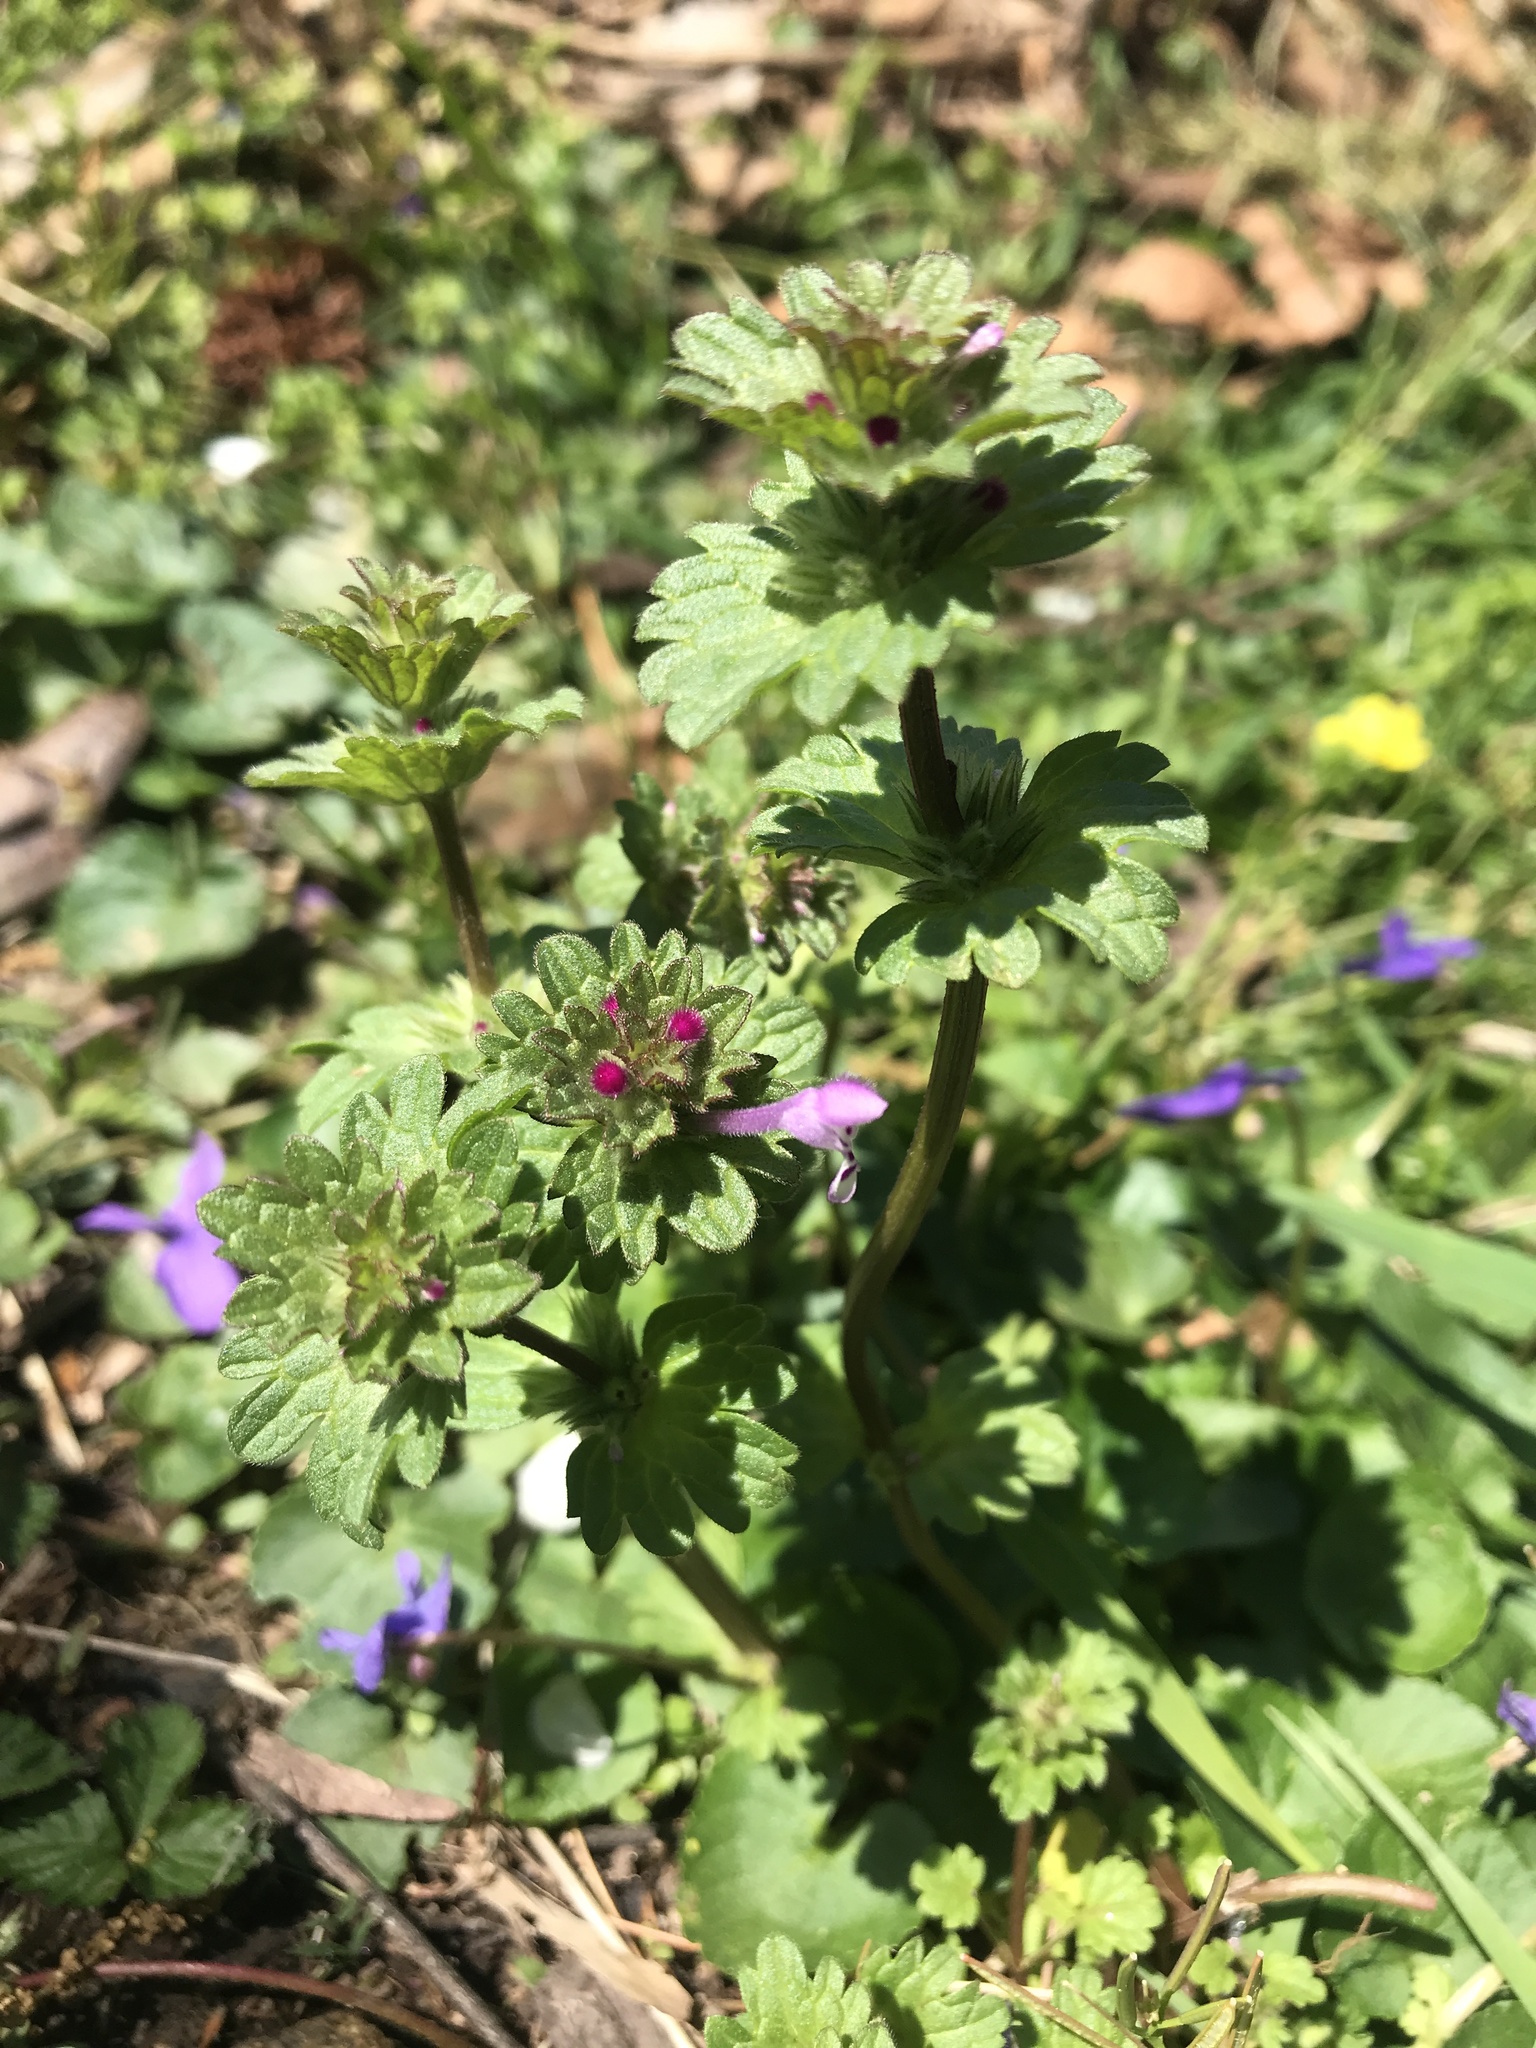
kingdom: Plantae
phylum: Tracheophyta
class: Magnoliopsida
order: Lamiales
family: Lamiaceae
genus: Lamium
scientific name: Lamium amplexicaule
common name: Henbit dead-nettle
